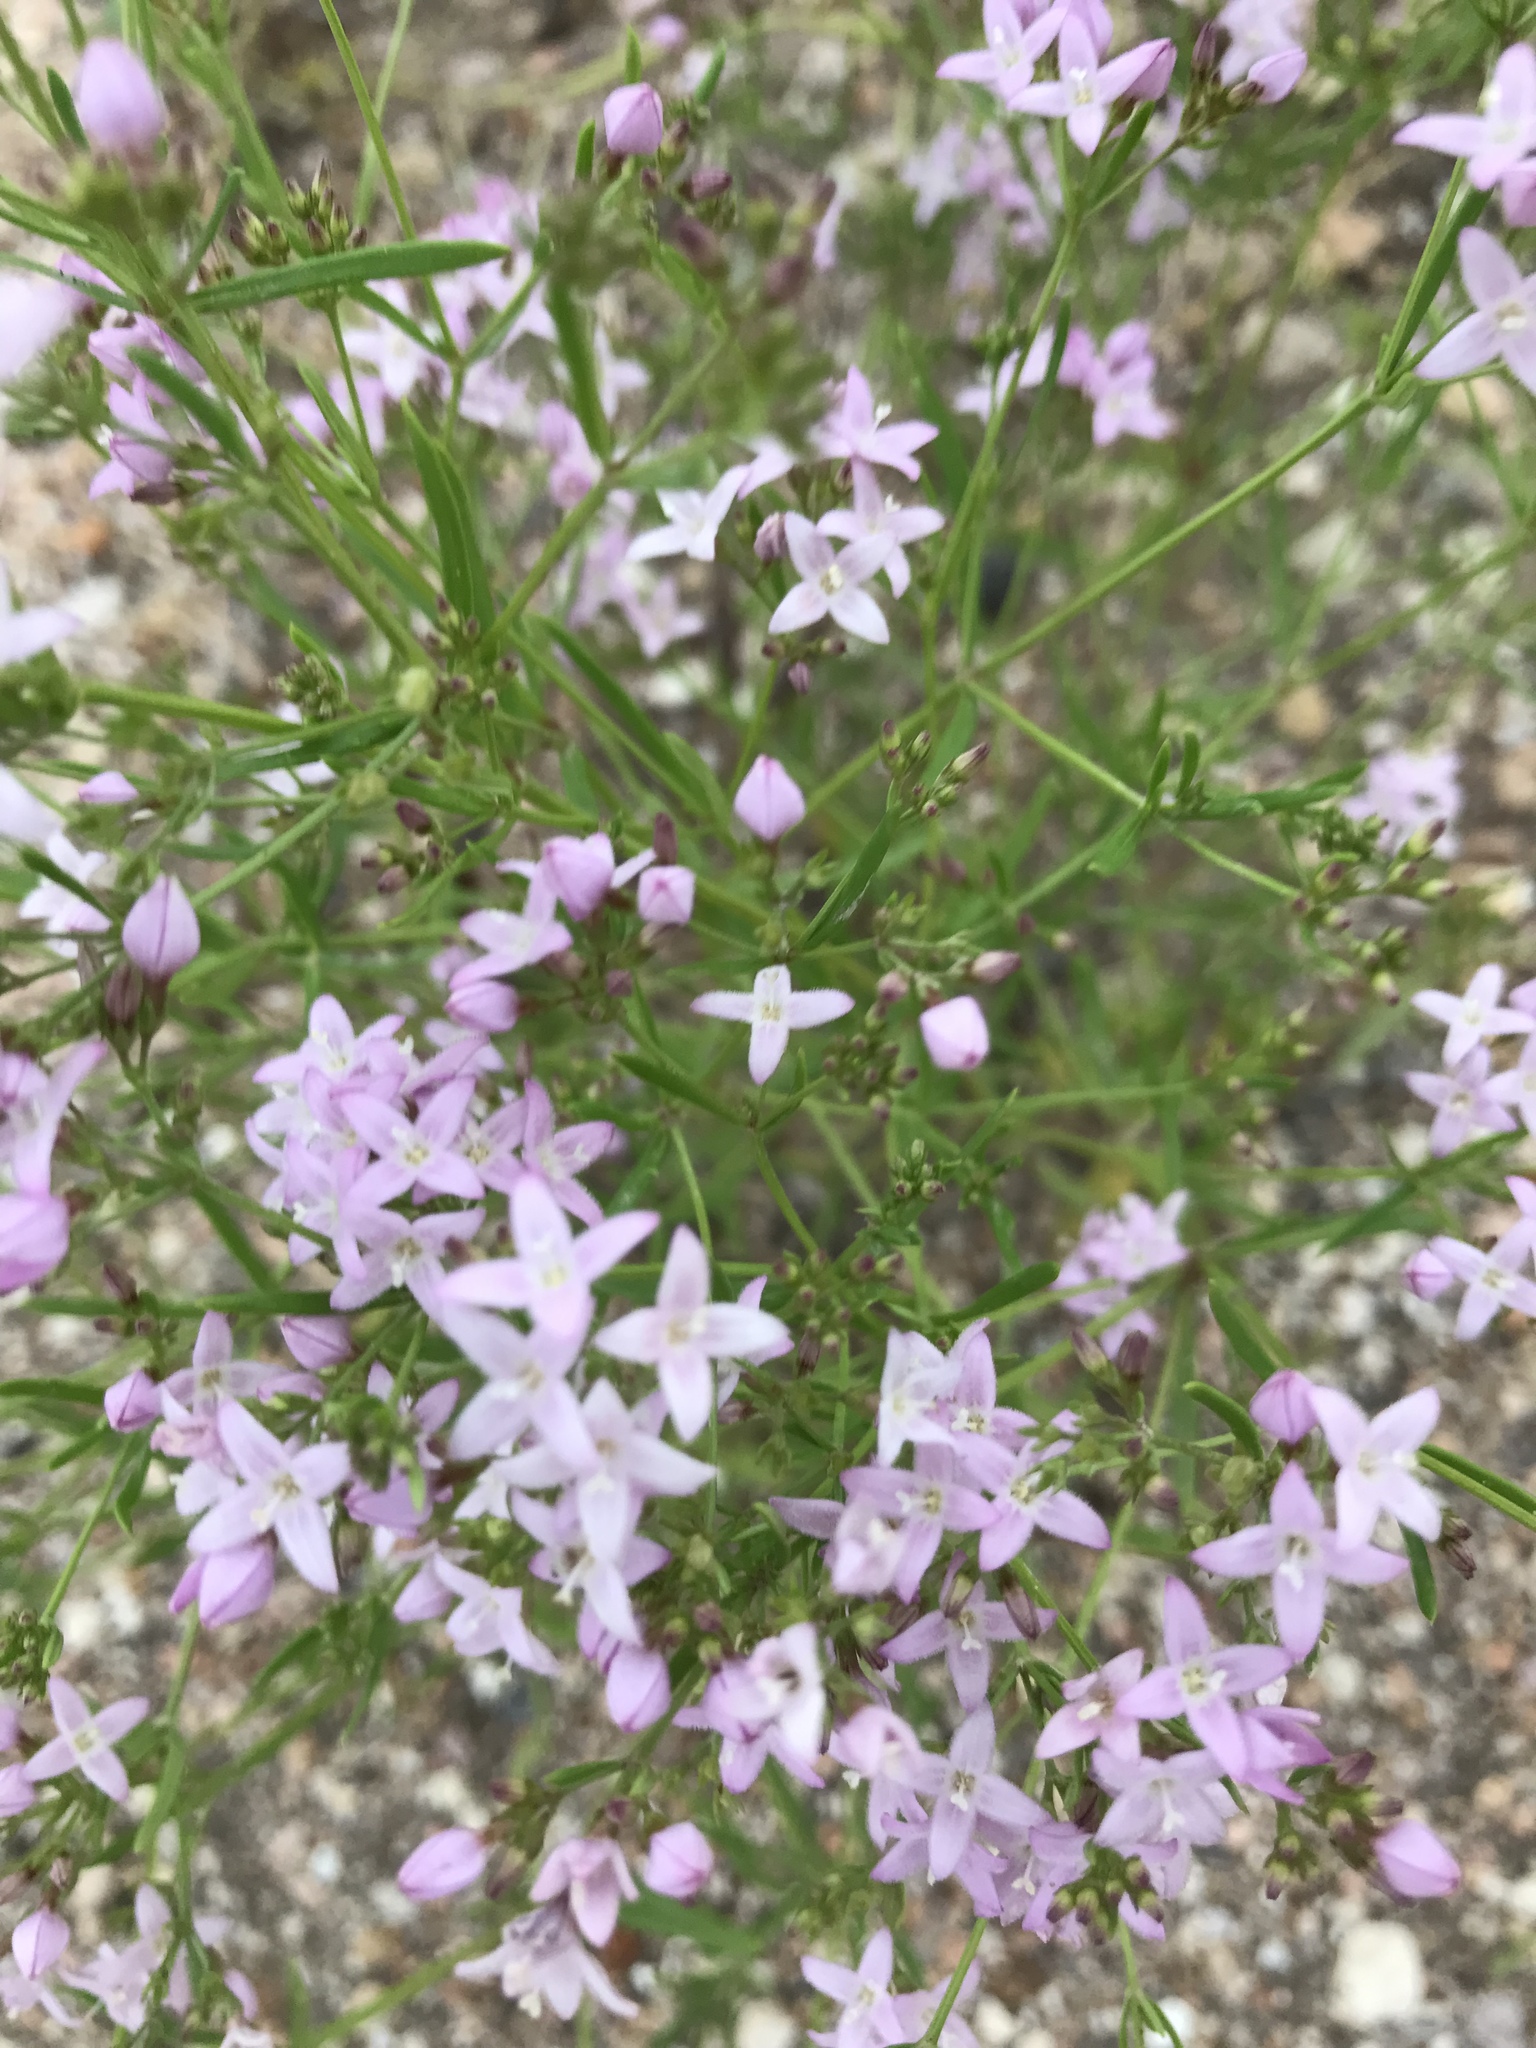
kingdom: Plantae
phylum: Tracheophyta
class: Magnoliopsida
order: Gentianales
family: Rubiaceae
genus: Stenaria
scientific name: Stenaria nigricans
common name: Diamondflowers
